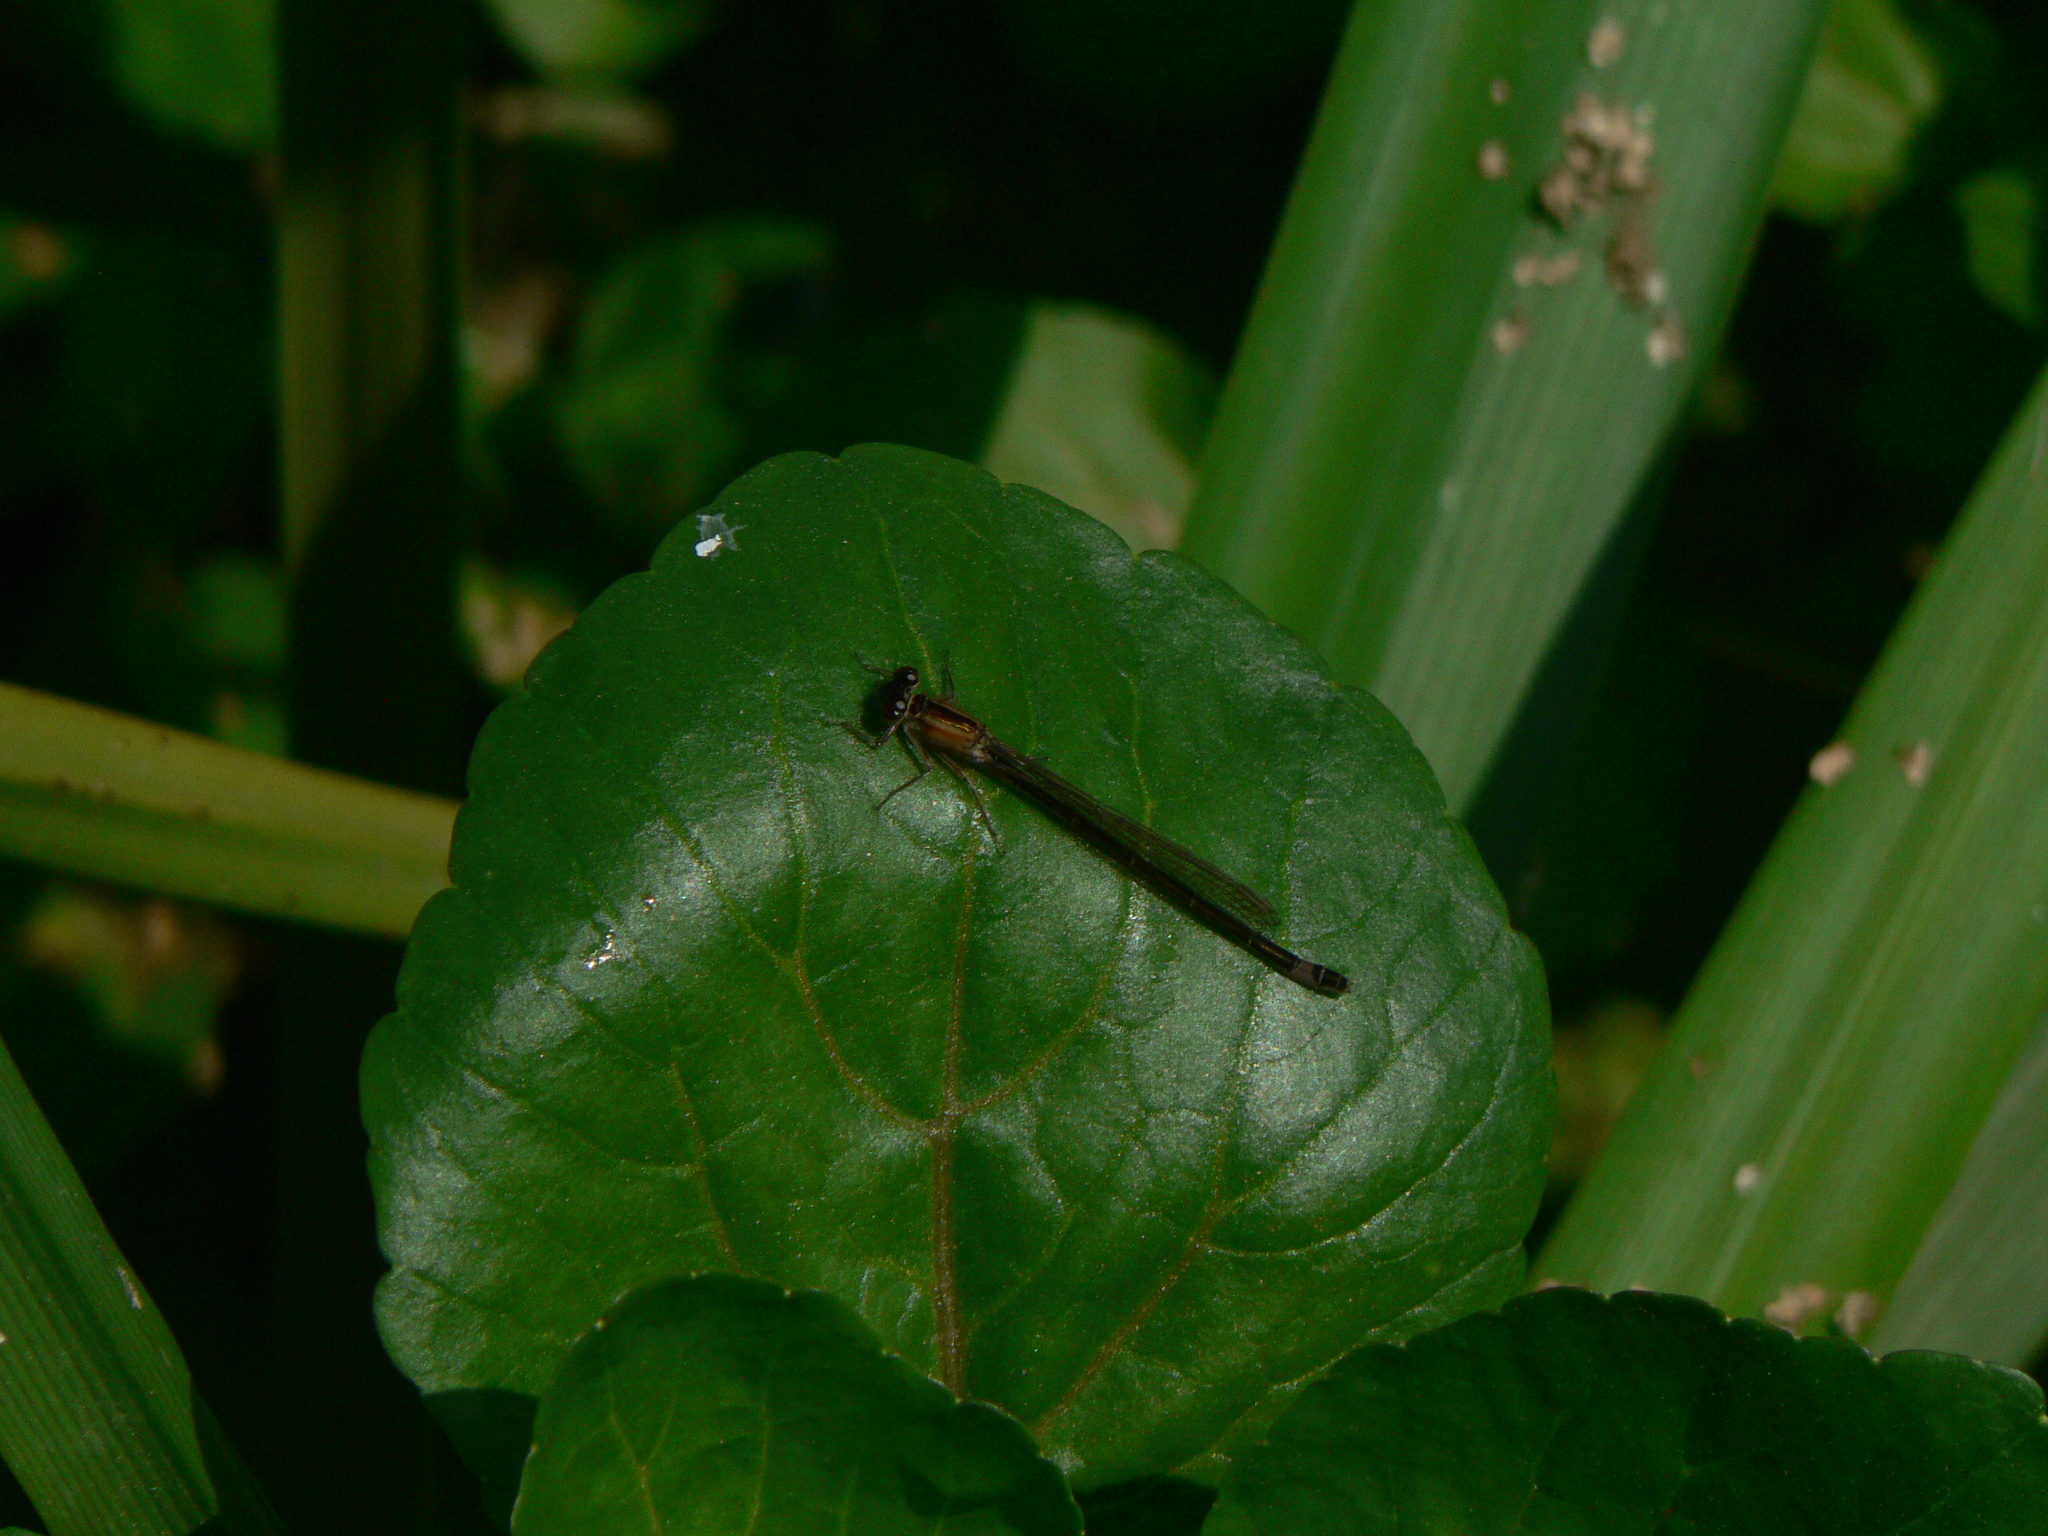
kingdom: Animalia
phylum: Arthropoda
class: Insecta
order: Odonata
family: Coenagrionidae
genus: Ischnura
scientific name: Ischnura elegans
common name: Blue-tailed damselfly
